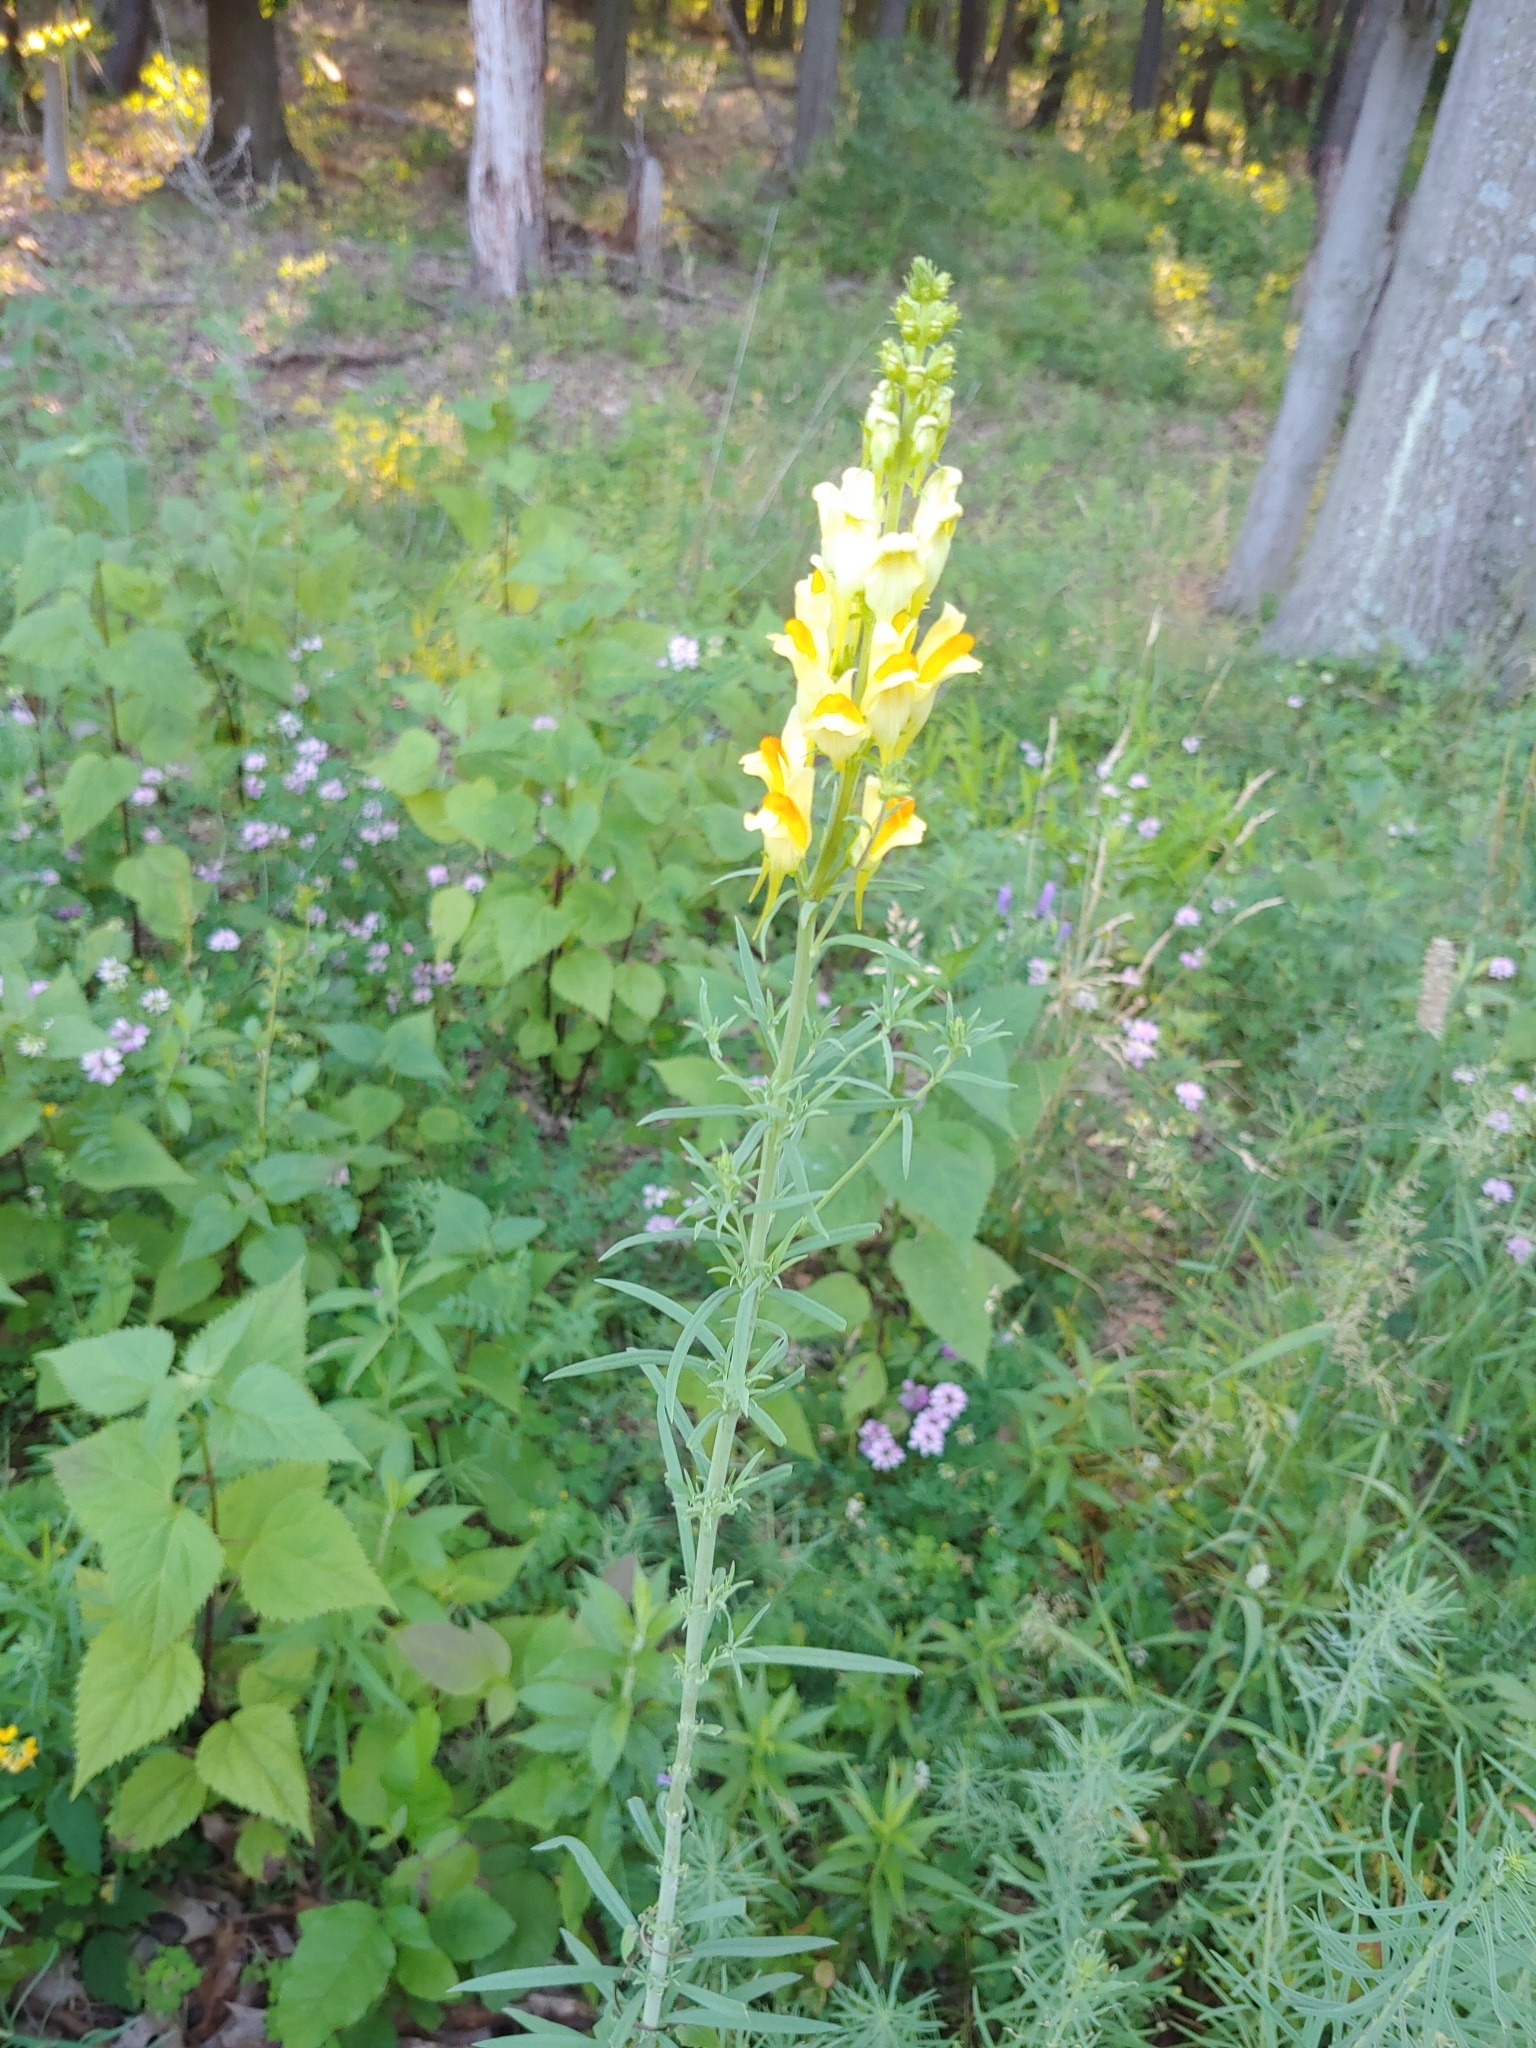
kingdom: Plantae
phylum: Tracheophyta
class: Magnoliopsida
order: Lamiales
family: Plantaginaceae
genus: Linaria
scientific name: Linaria vulgaris
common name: Butter and eggs
